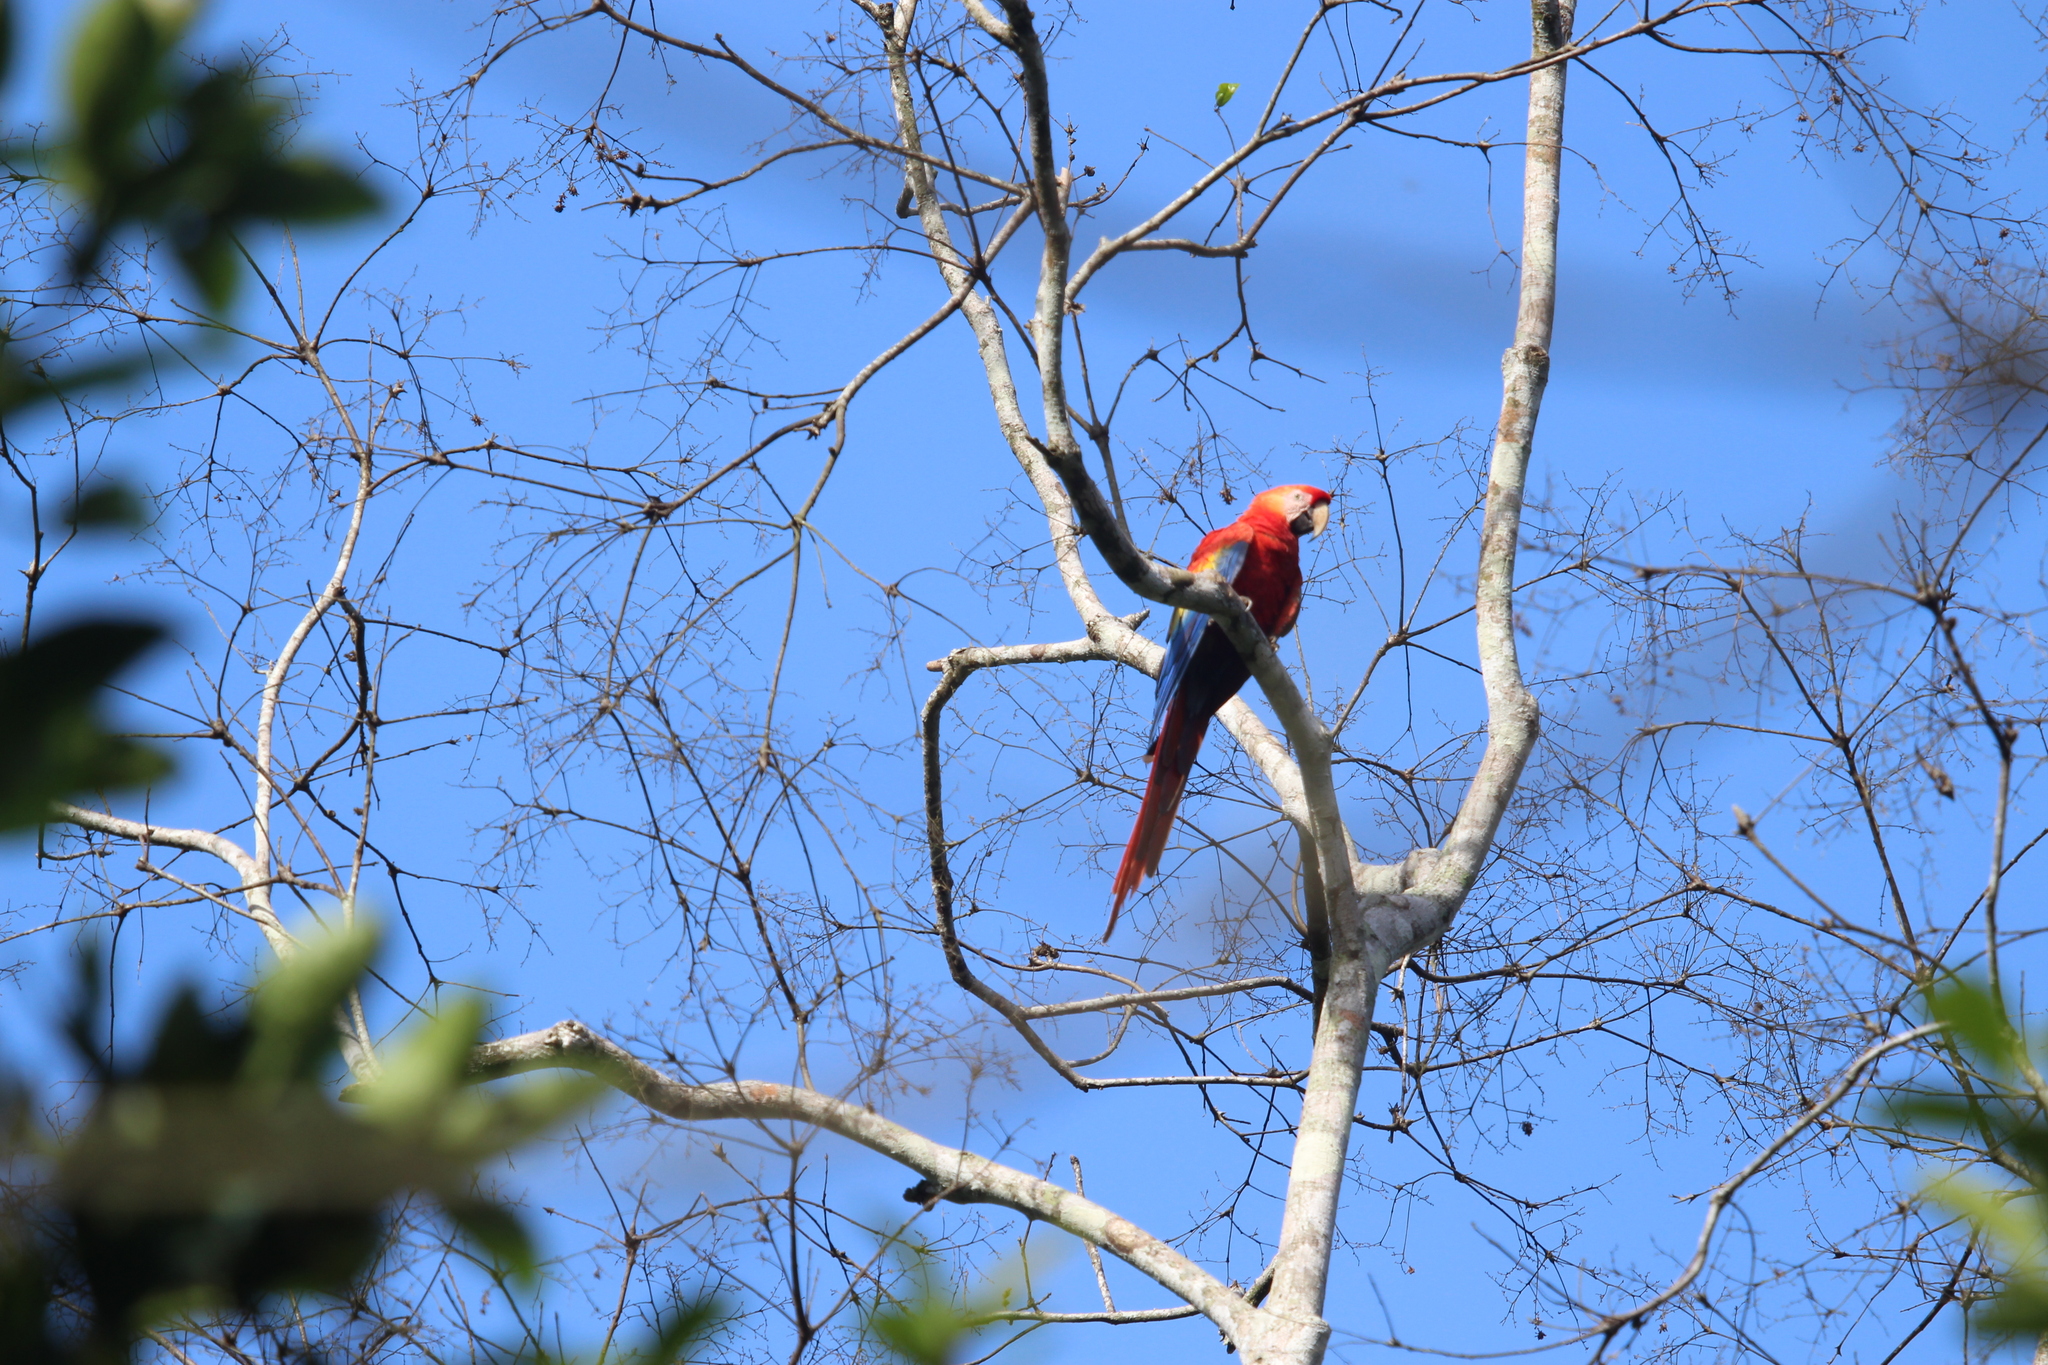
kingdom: Animalia
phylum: Chordata
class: Aves
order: Psittaciformes
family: Psittacidae
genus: Ara
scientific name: Ara macao
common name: Scarlet macaw
